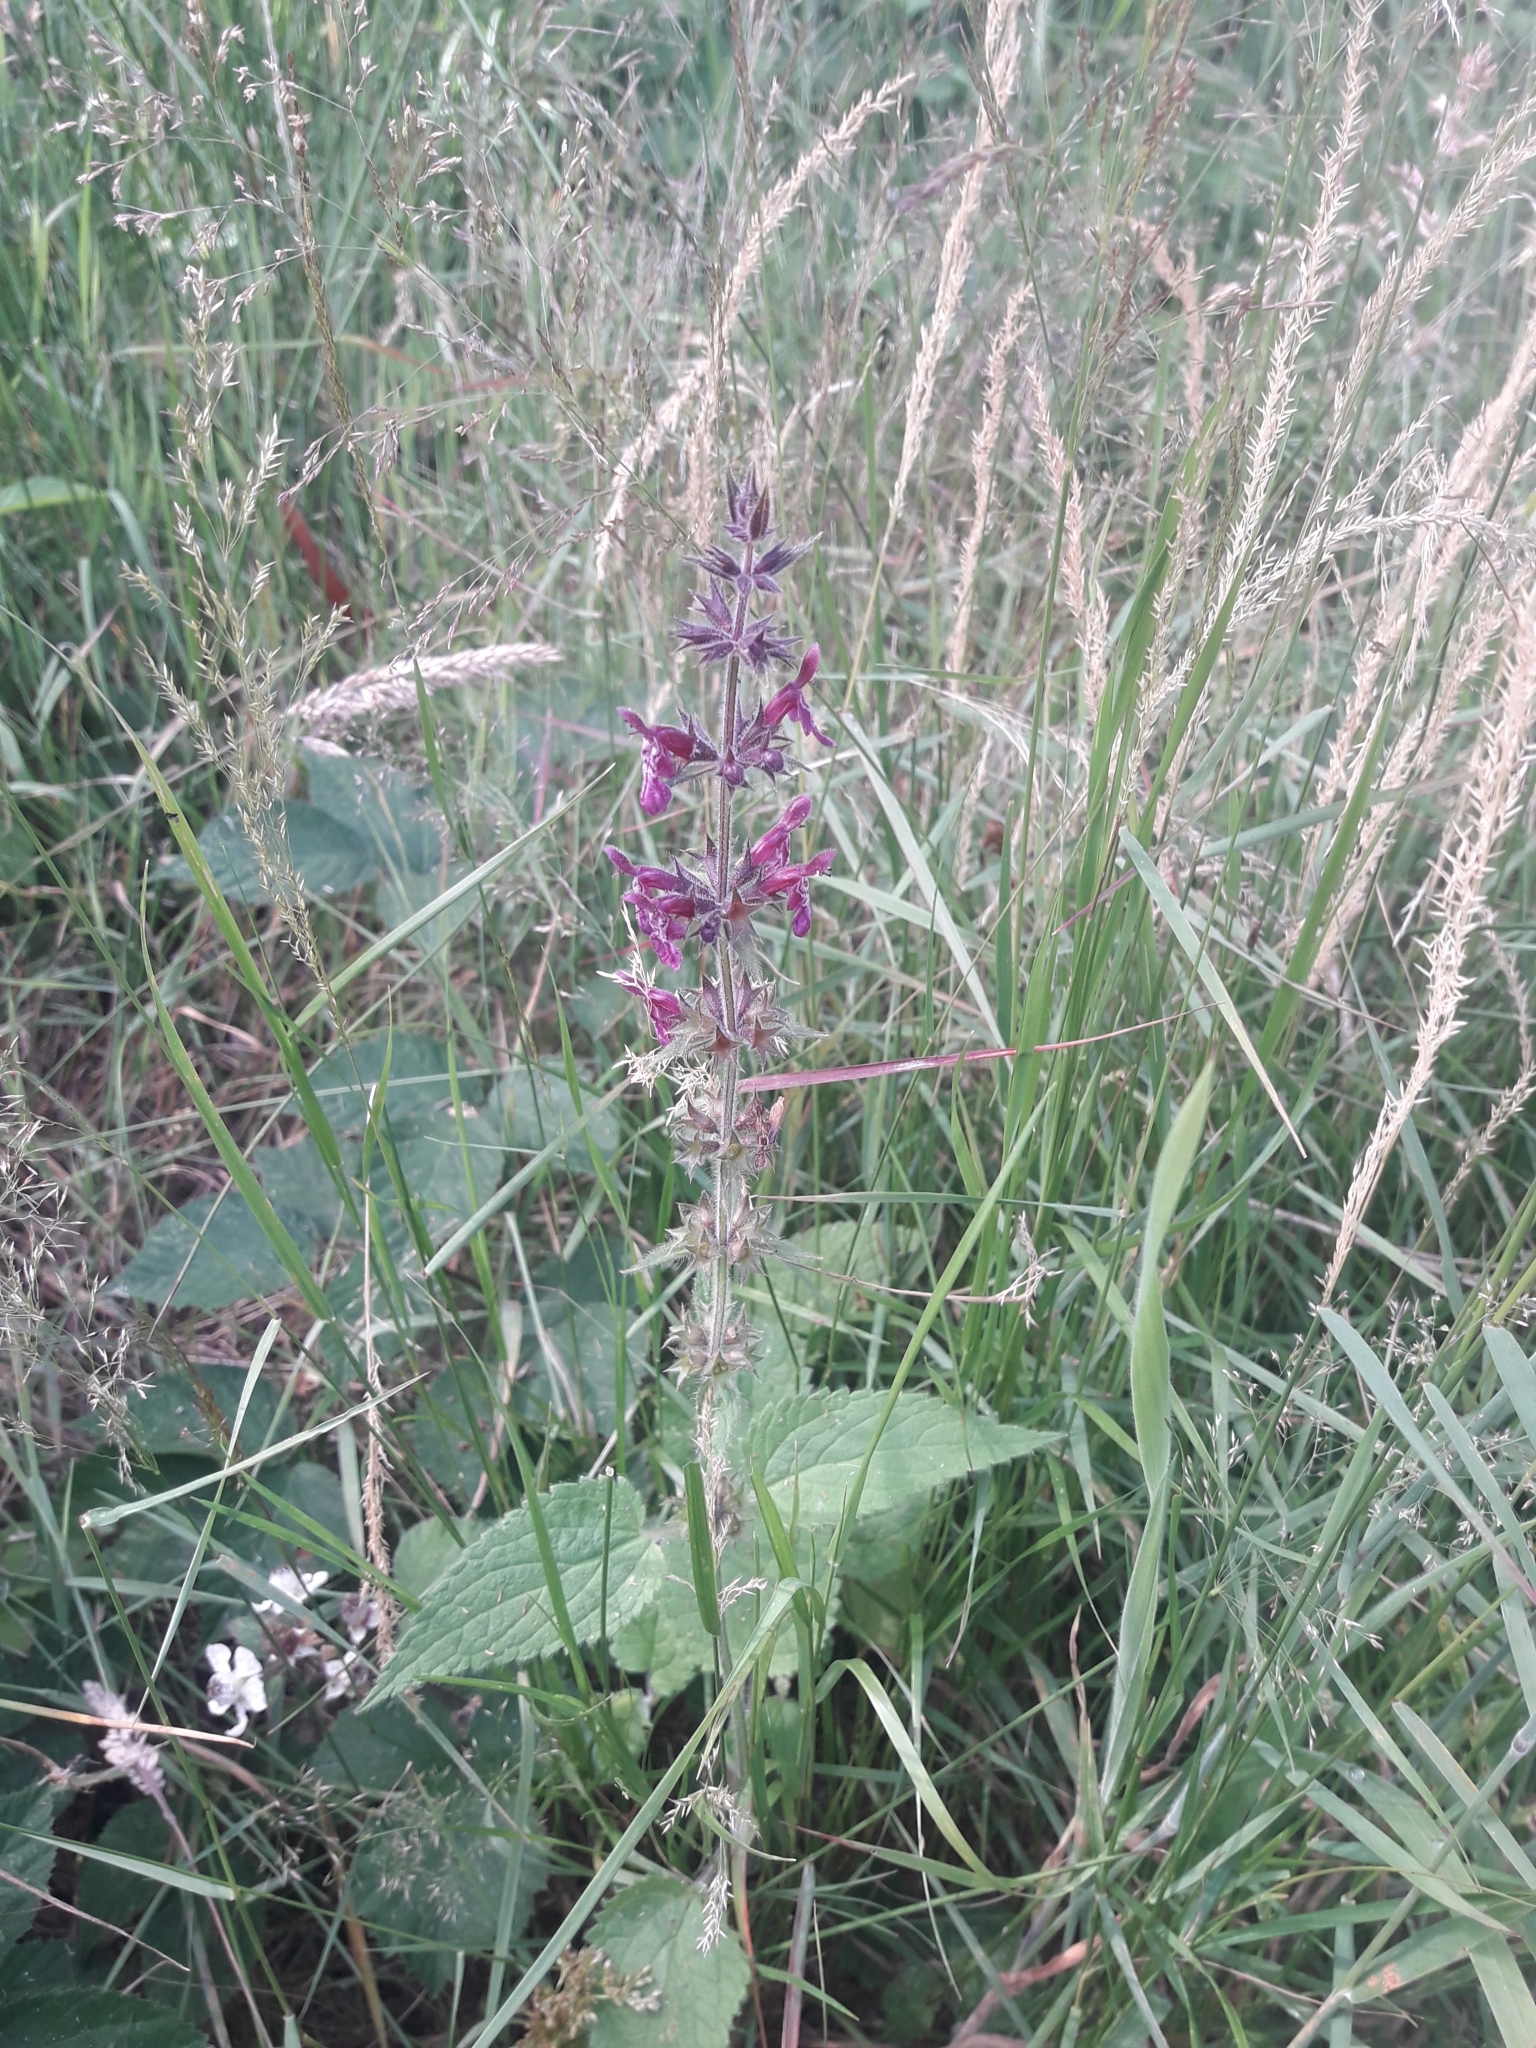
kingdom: Plantae
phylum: Tracheophyta
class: Magnoliopsida
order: Lamiales
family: Lamiaceae
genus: Stachys
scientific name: Stachys sylvatica
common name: Hedge woundwort
